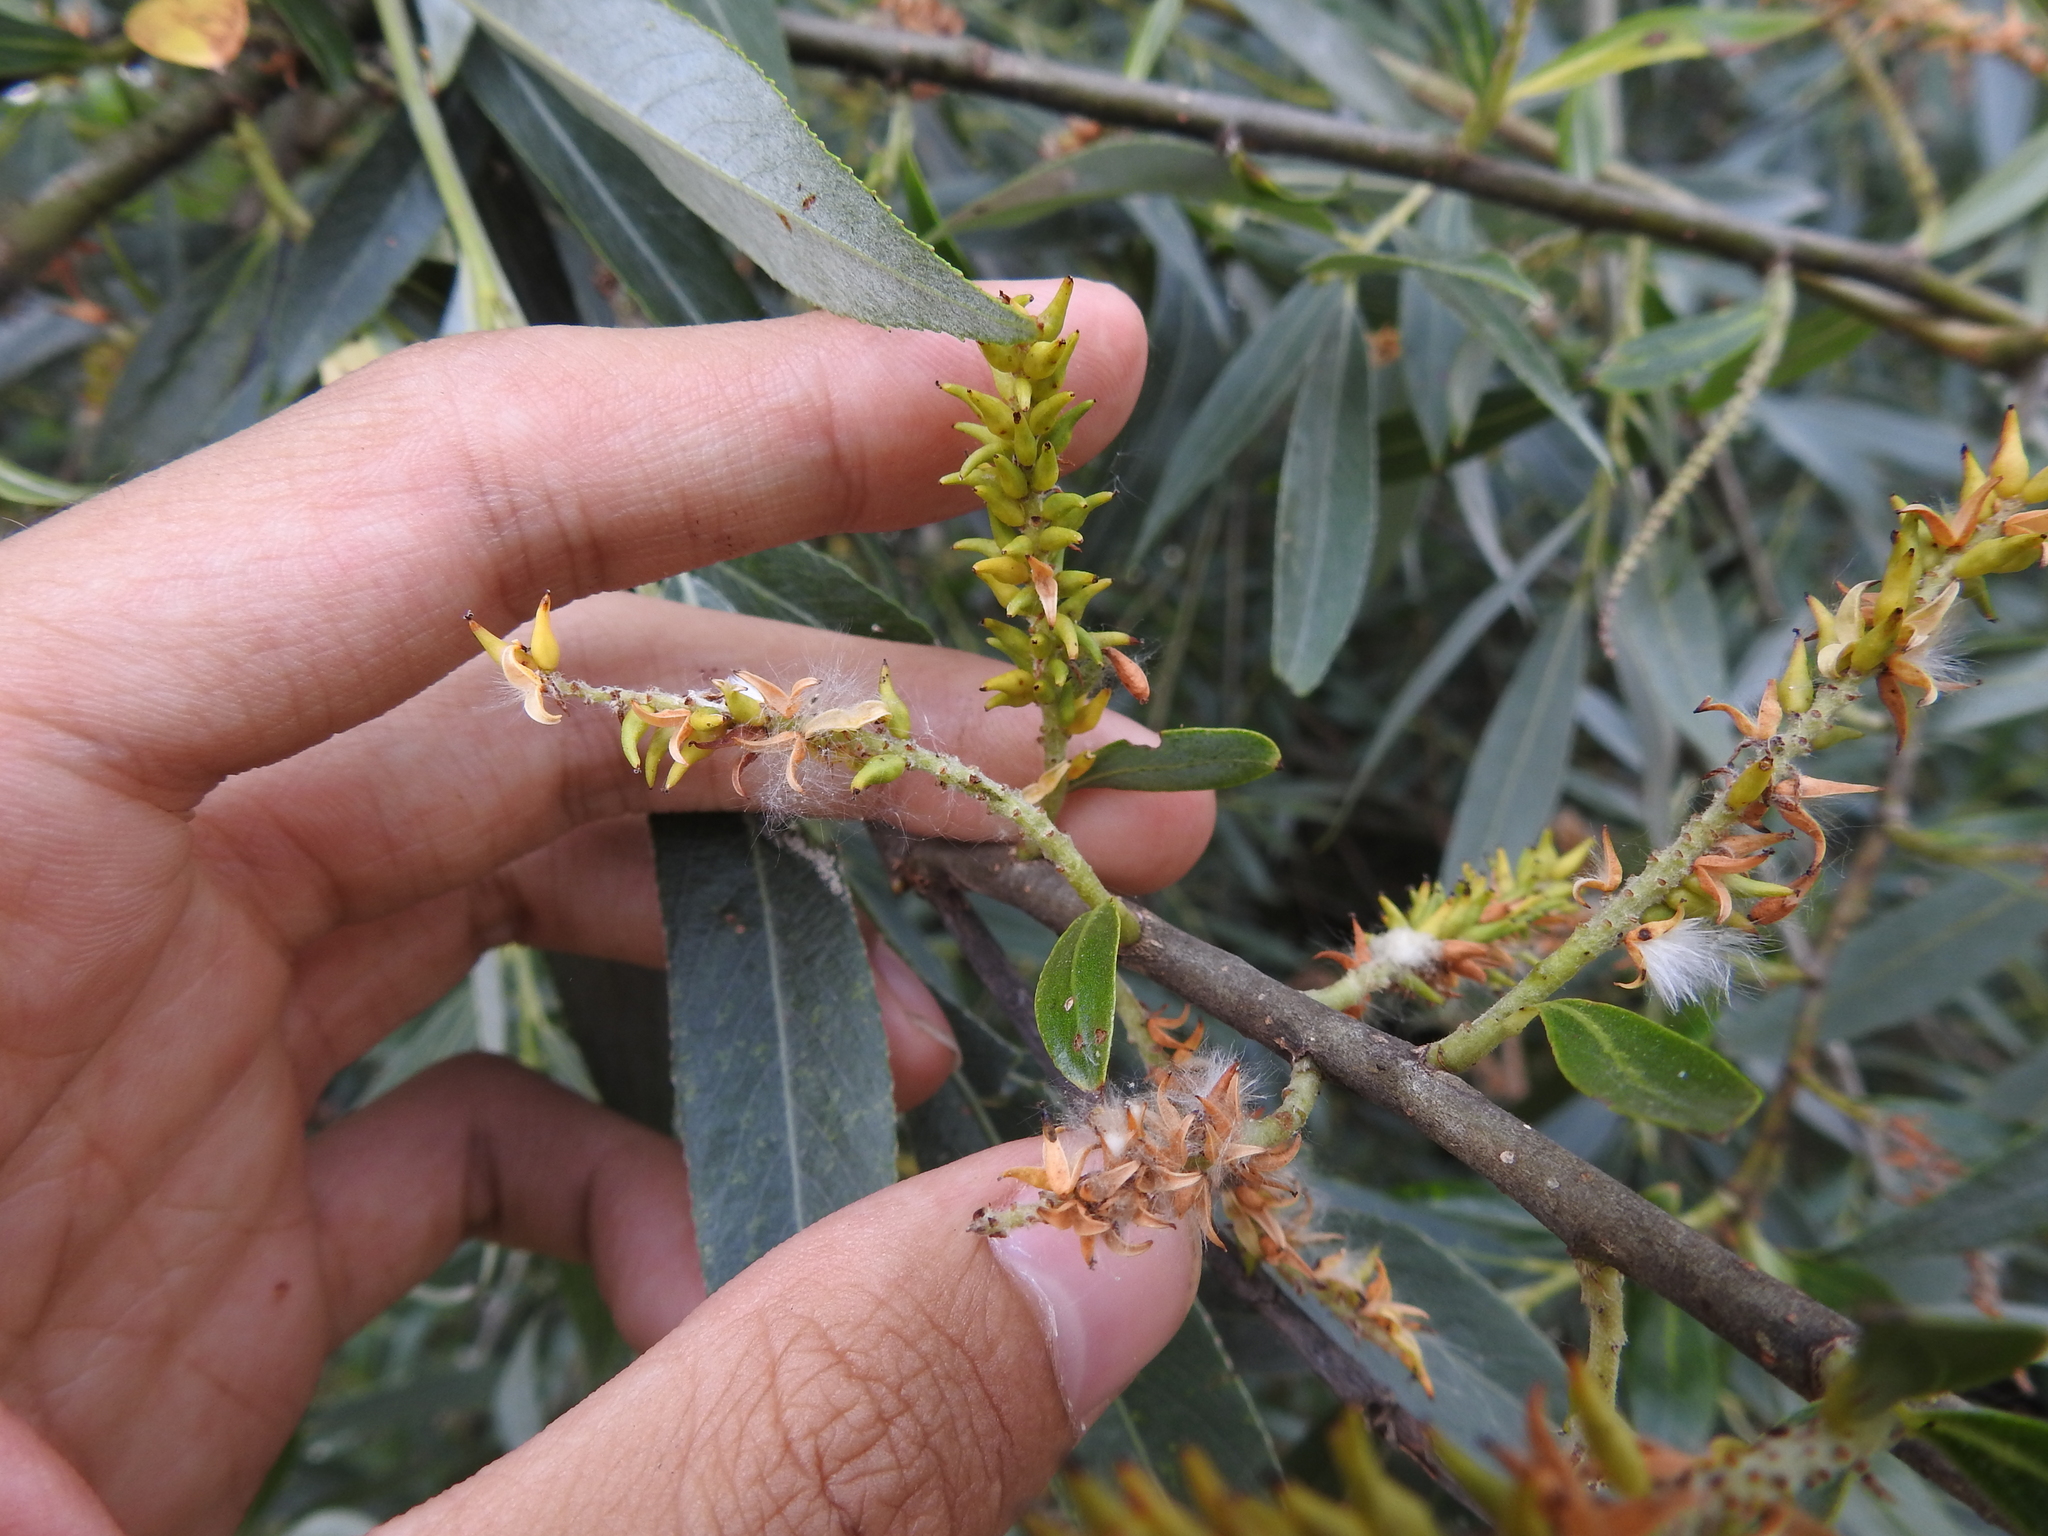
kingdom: Plantae
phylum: Tracheophyta
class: Magnoliopsida
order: Malpighiales
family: Salicaceae
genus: Salix
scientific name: Salix alba
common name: White willow
